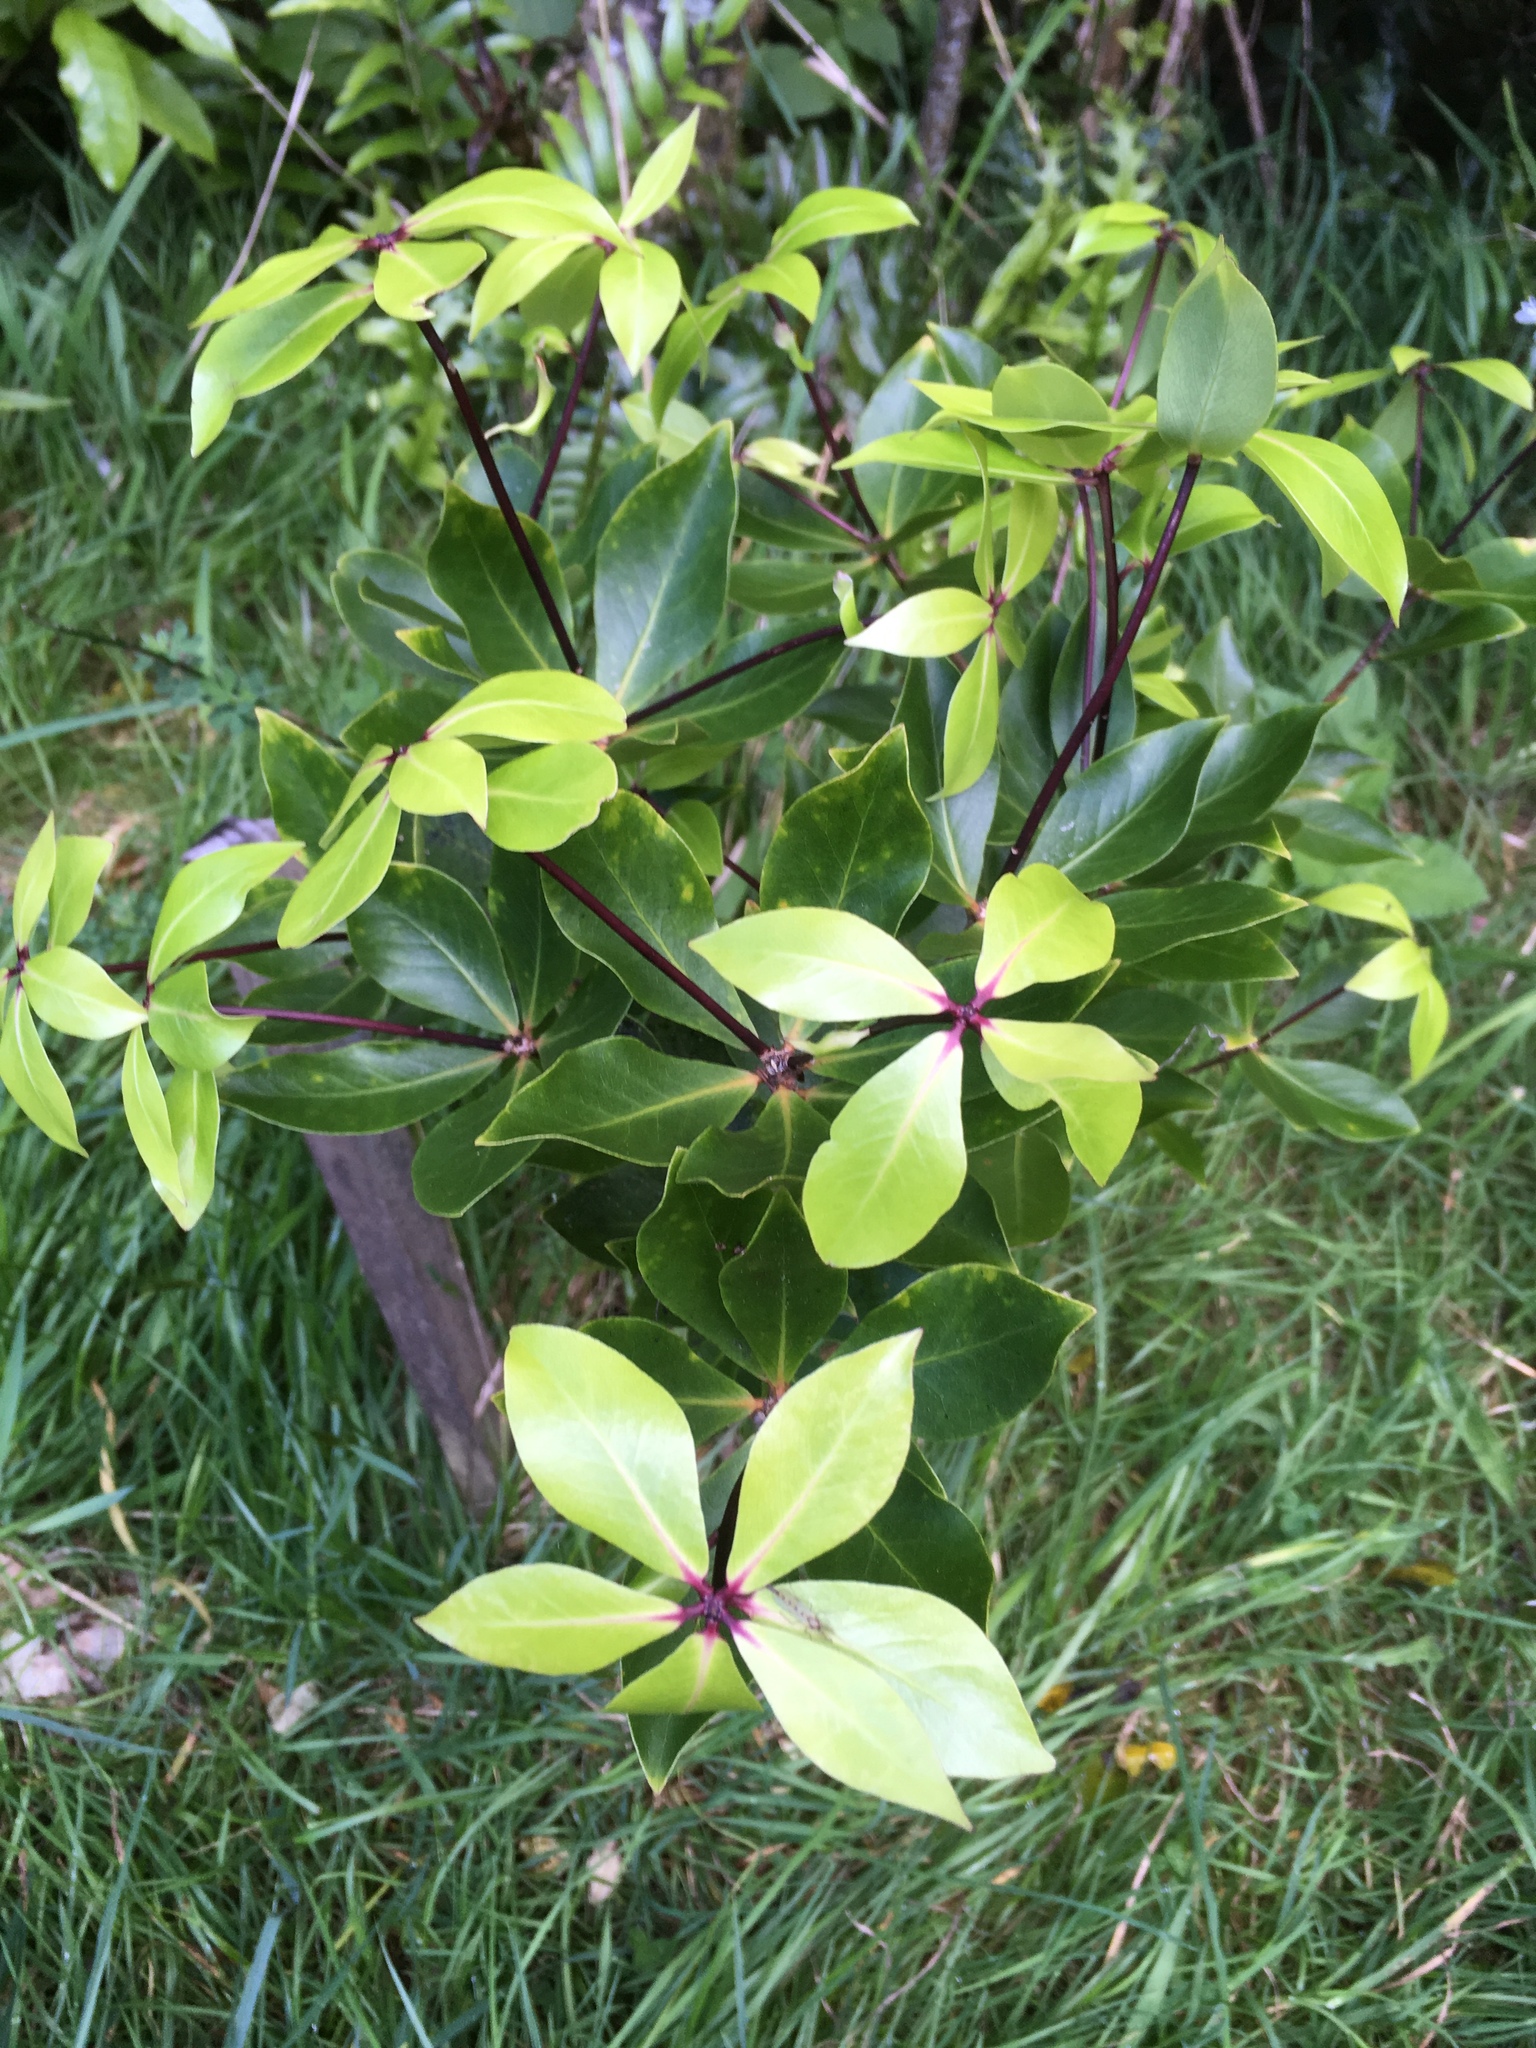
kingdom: Plantae
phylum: Tracheophyta
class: Magnoliopsida
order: Apiales
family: Pittosporaceae
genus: Pittosporum
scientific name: Pittosporum cornifolium
